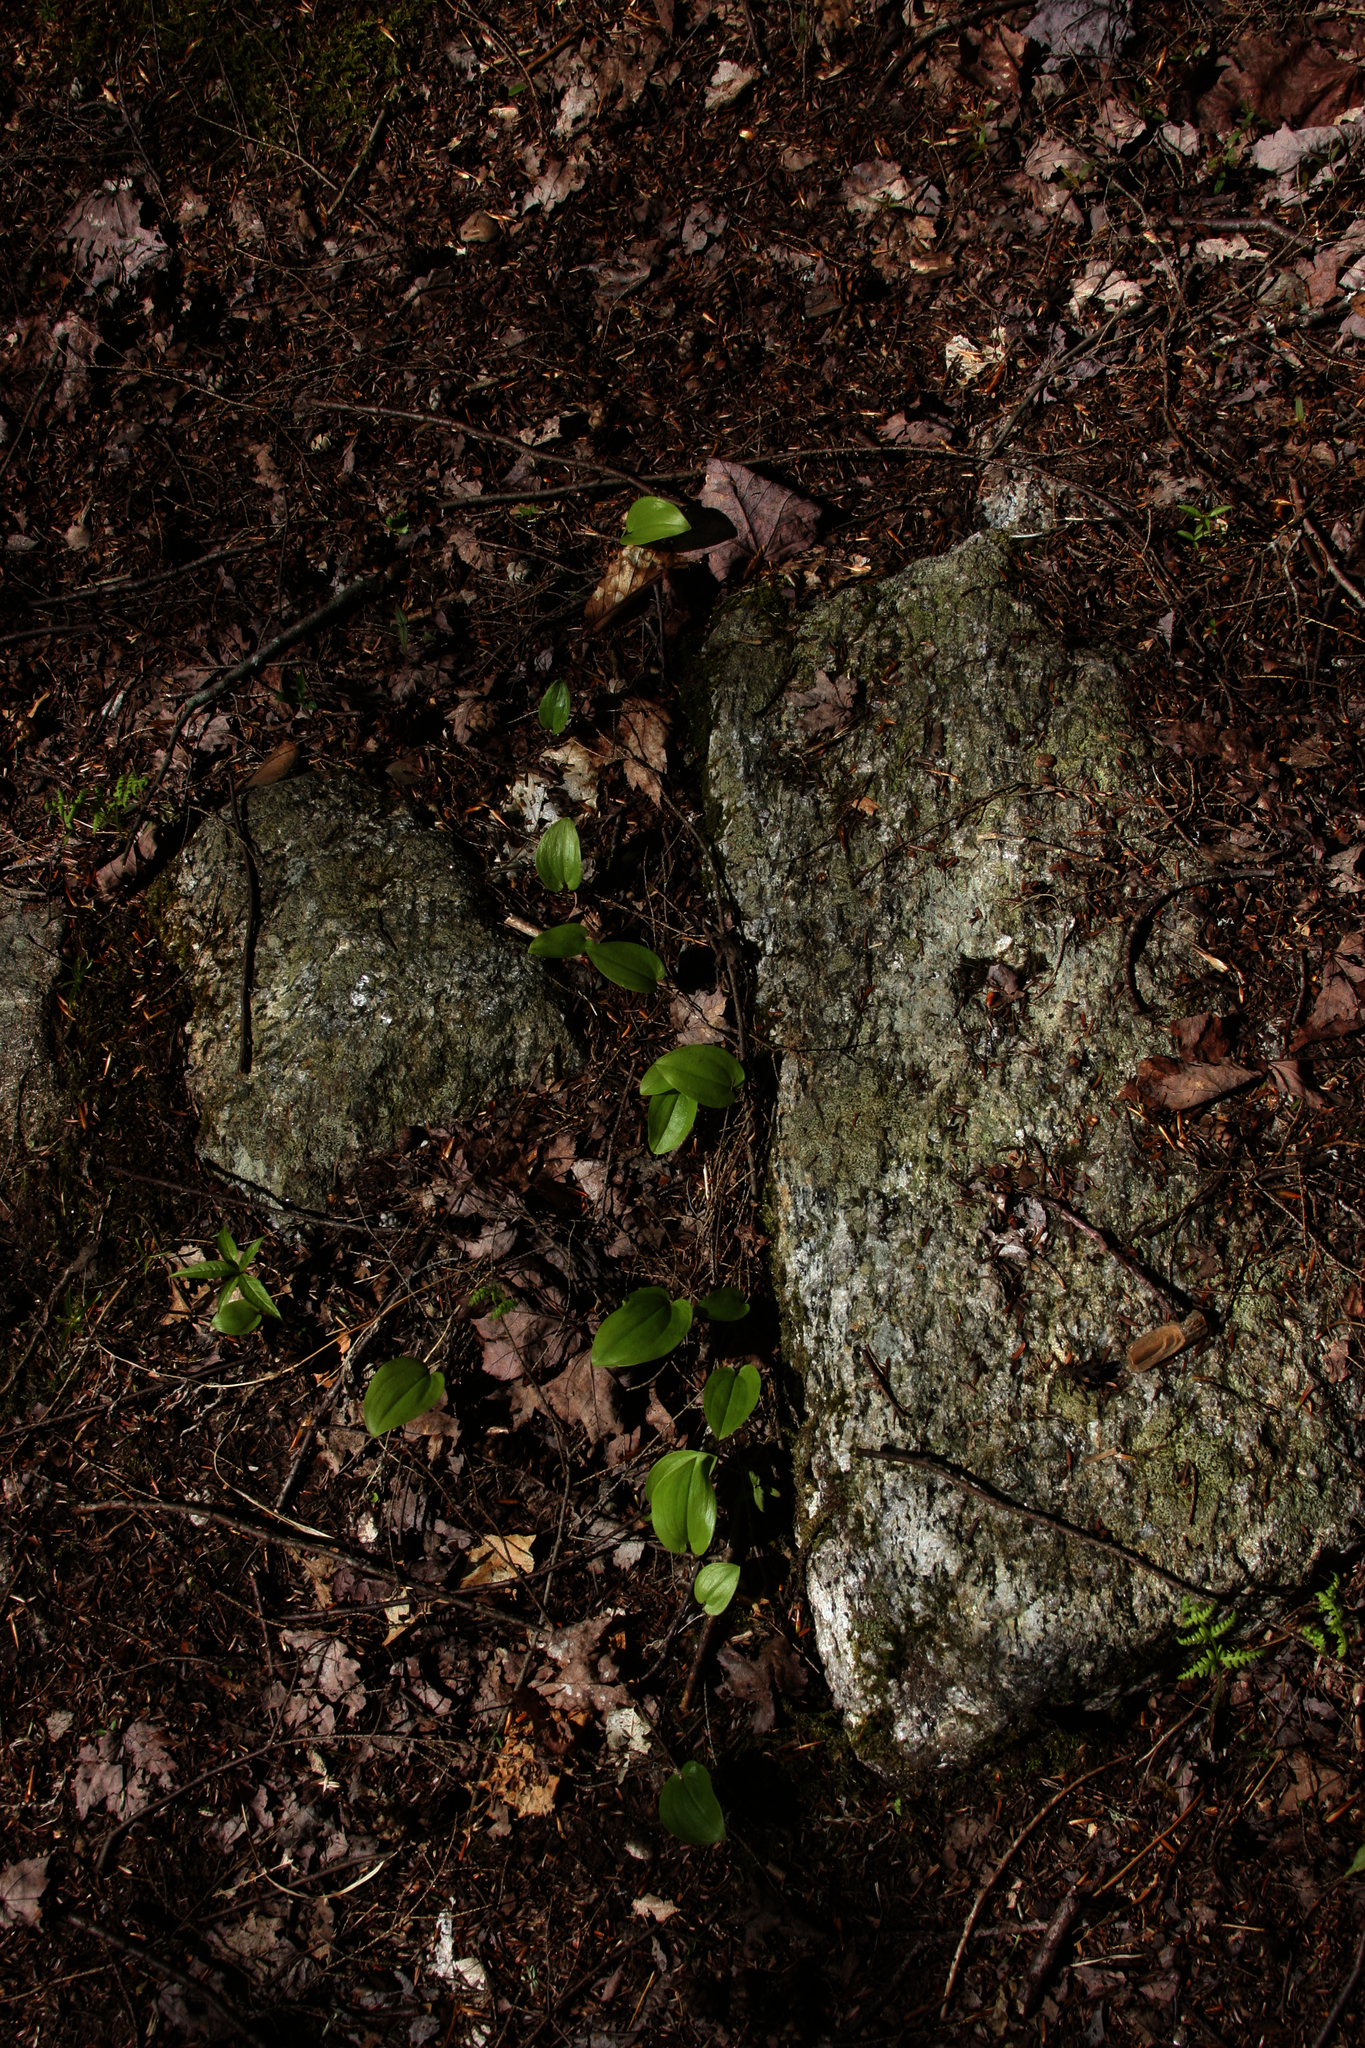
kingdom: Plantae
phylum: Tracheophyta
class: Liliopsida
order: Asparagales
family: Asparagaceae
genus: Maianthemum
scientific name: Maianthemum canadense
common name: False lily-of-the-valley
